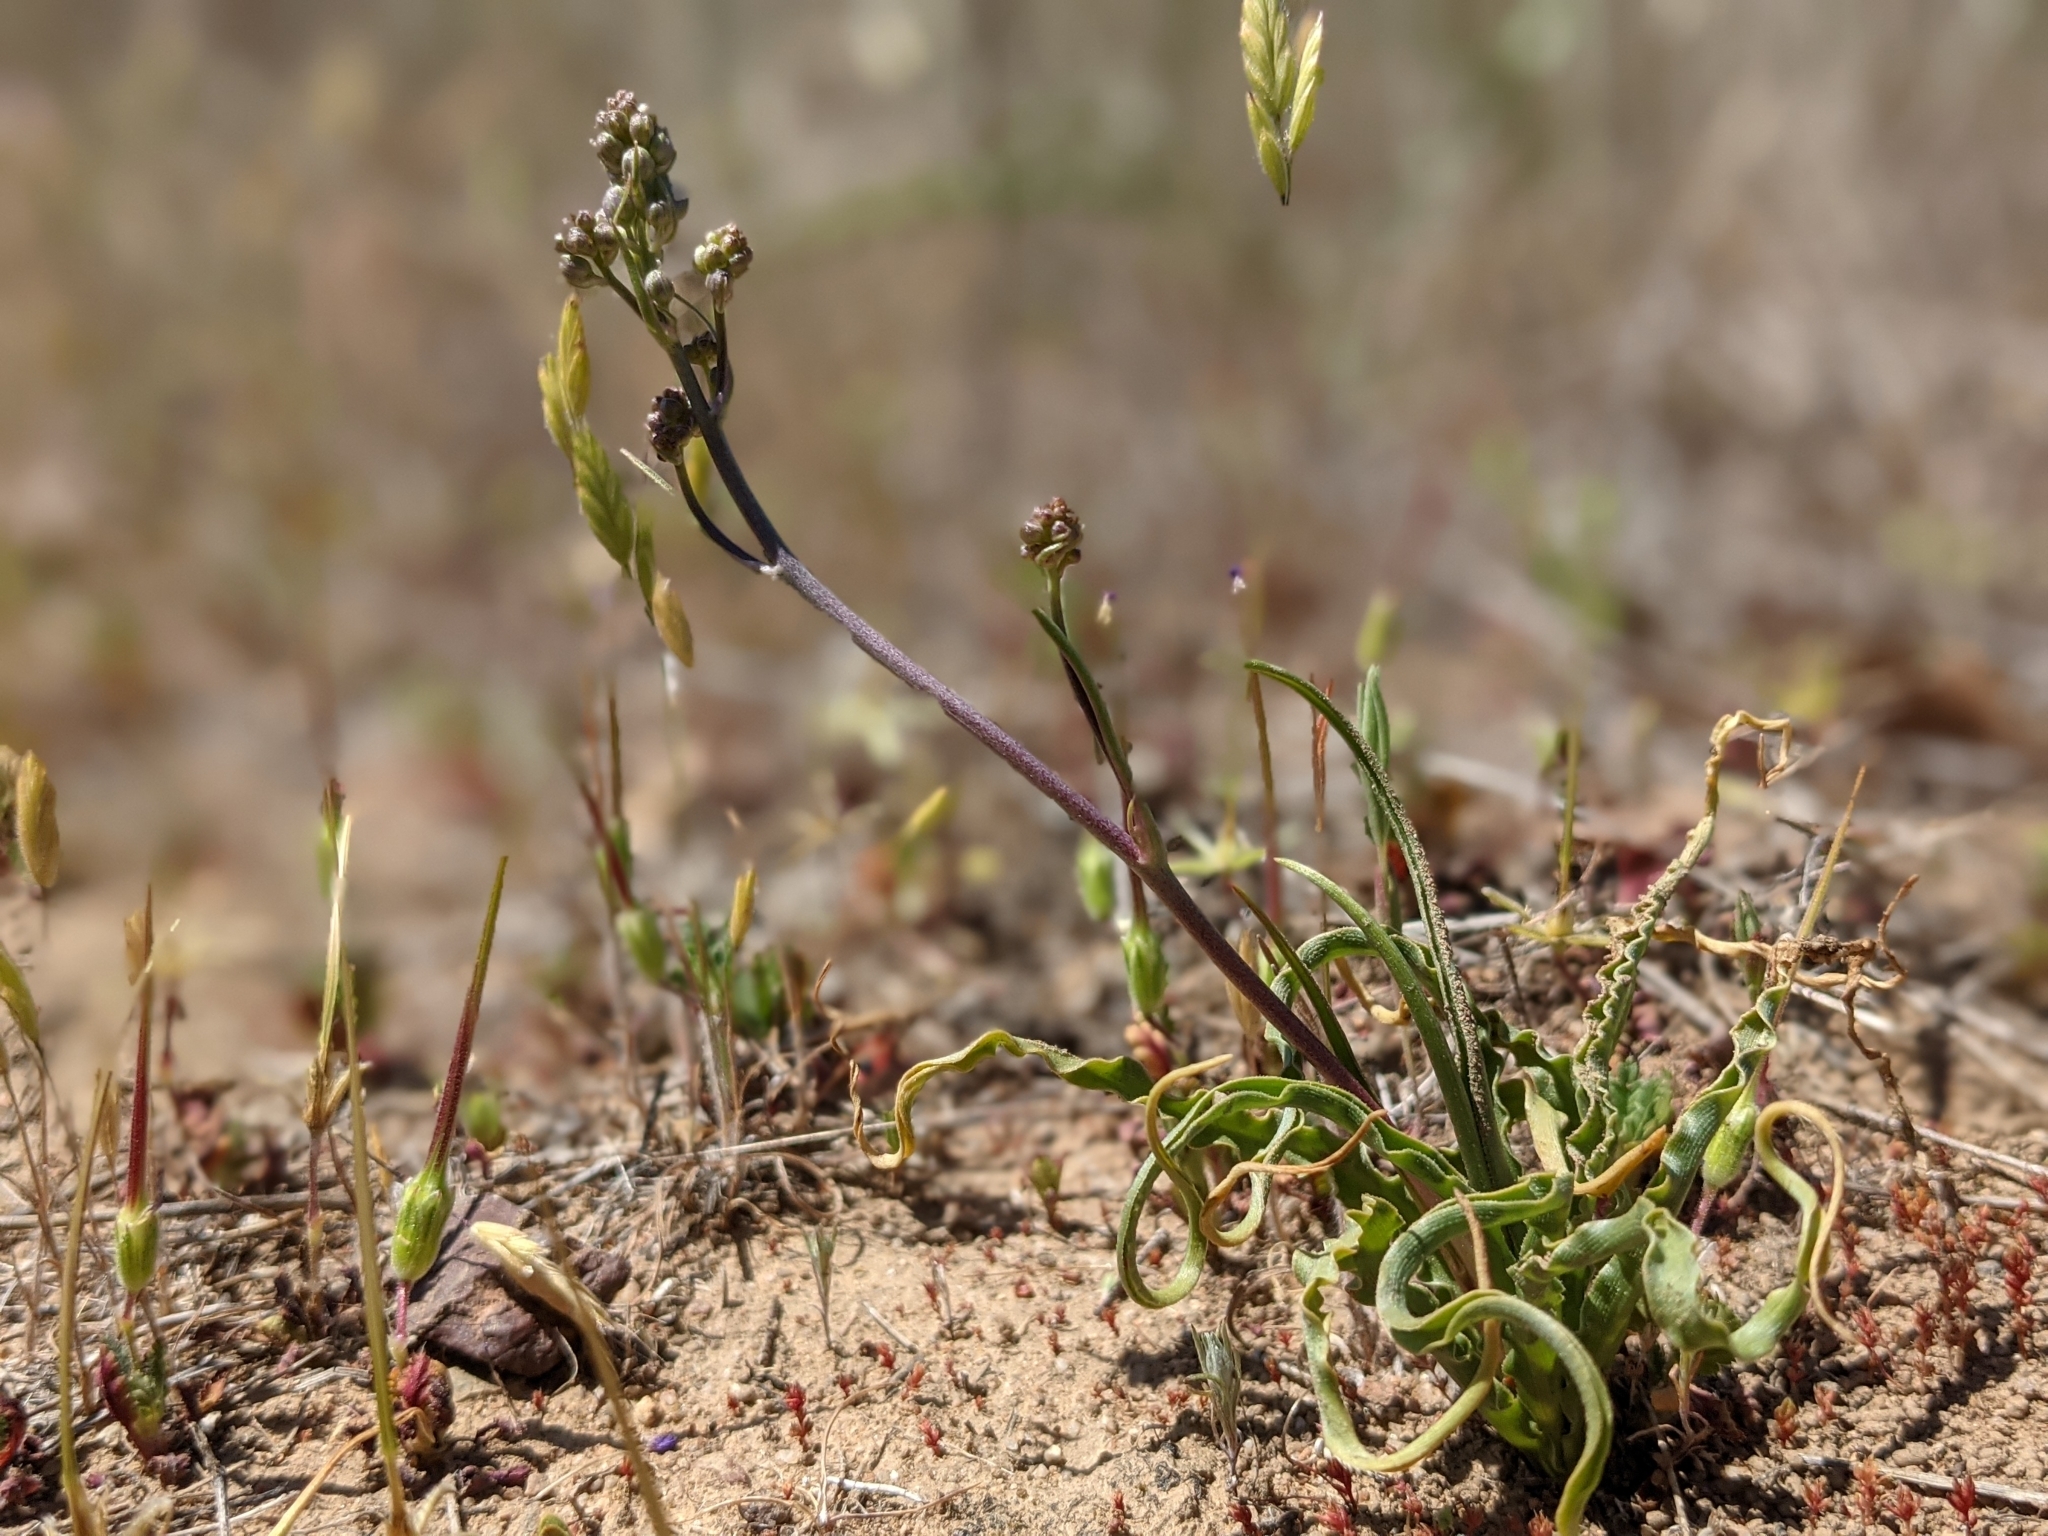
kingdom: Plantae
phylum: Tracheophyta
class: Liliopsida
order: Asparagales
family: Asparagaceae
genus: Hooveria
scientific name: Hooveria purpurea
